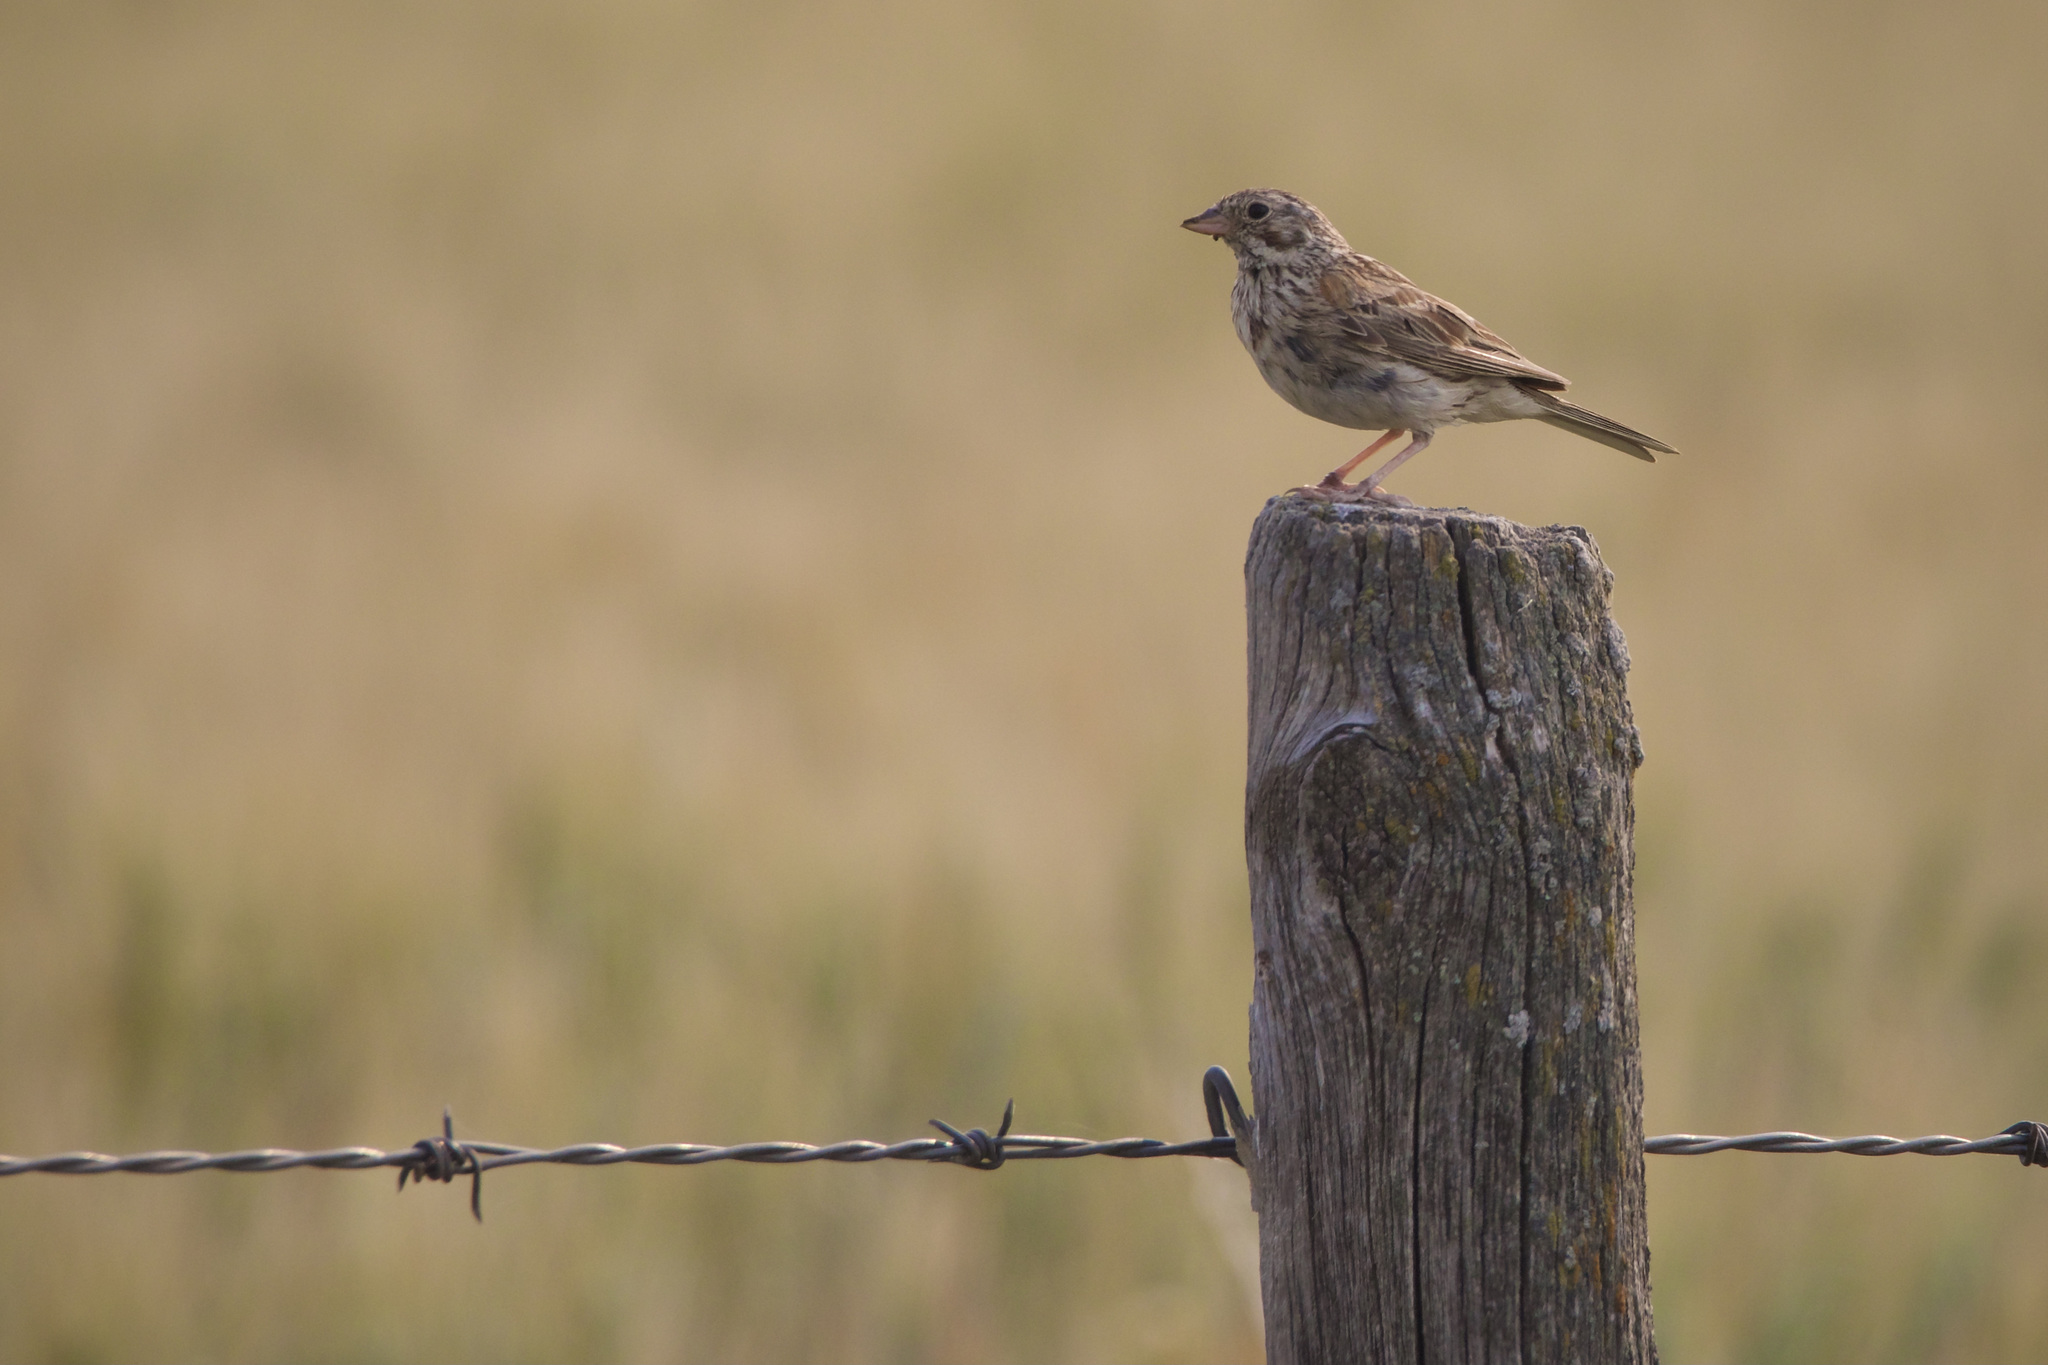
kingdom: Animalia
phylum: Chordata
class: Aves
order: Passeriformes
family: Passerellidae
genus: Pooecetes
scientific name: Pooecetes gramineus
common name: Vesper sparrow
